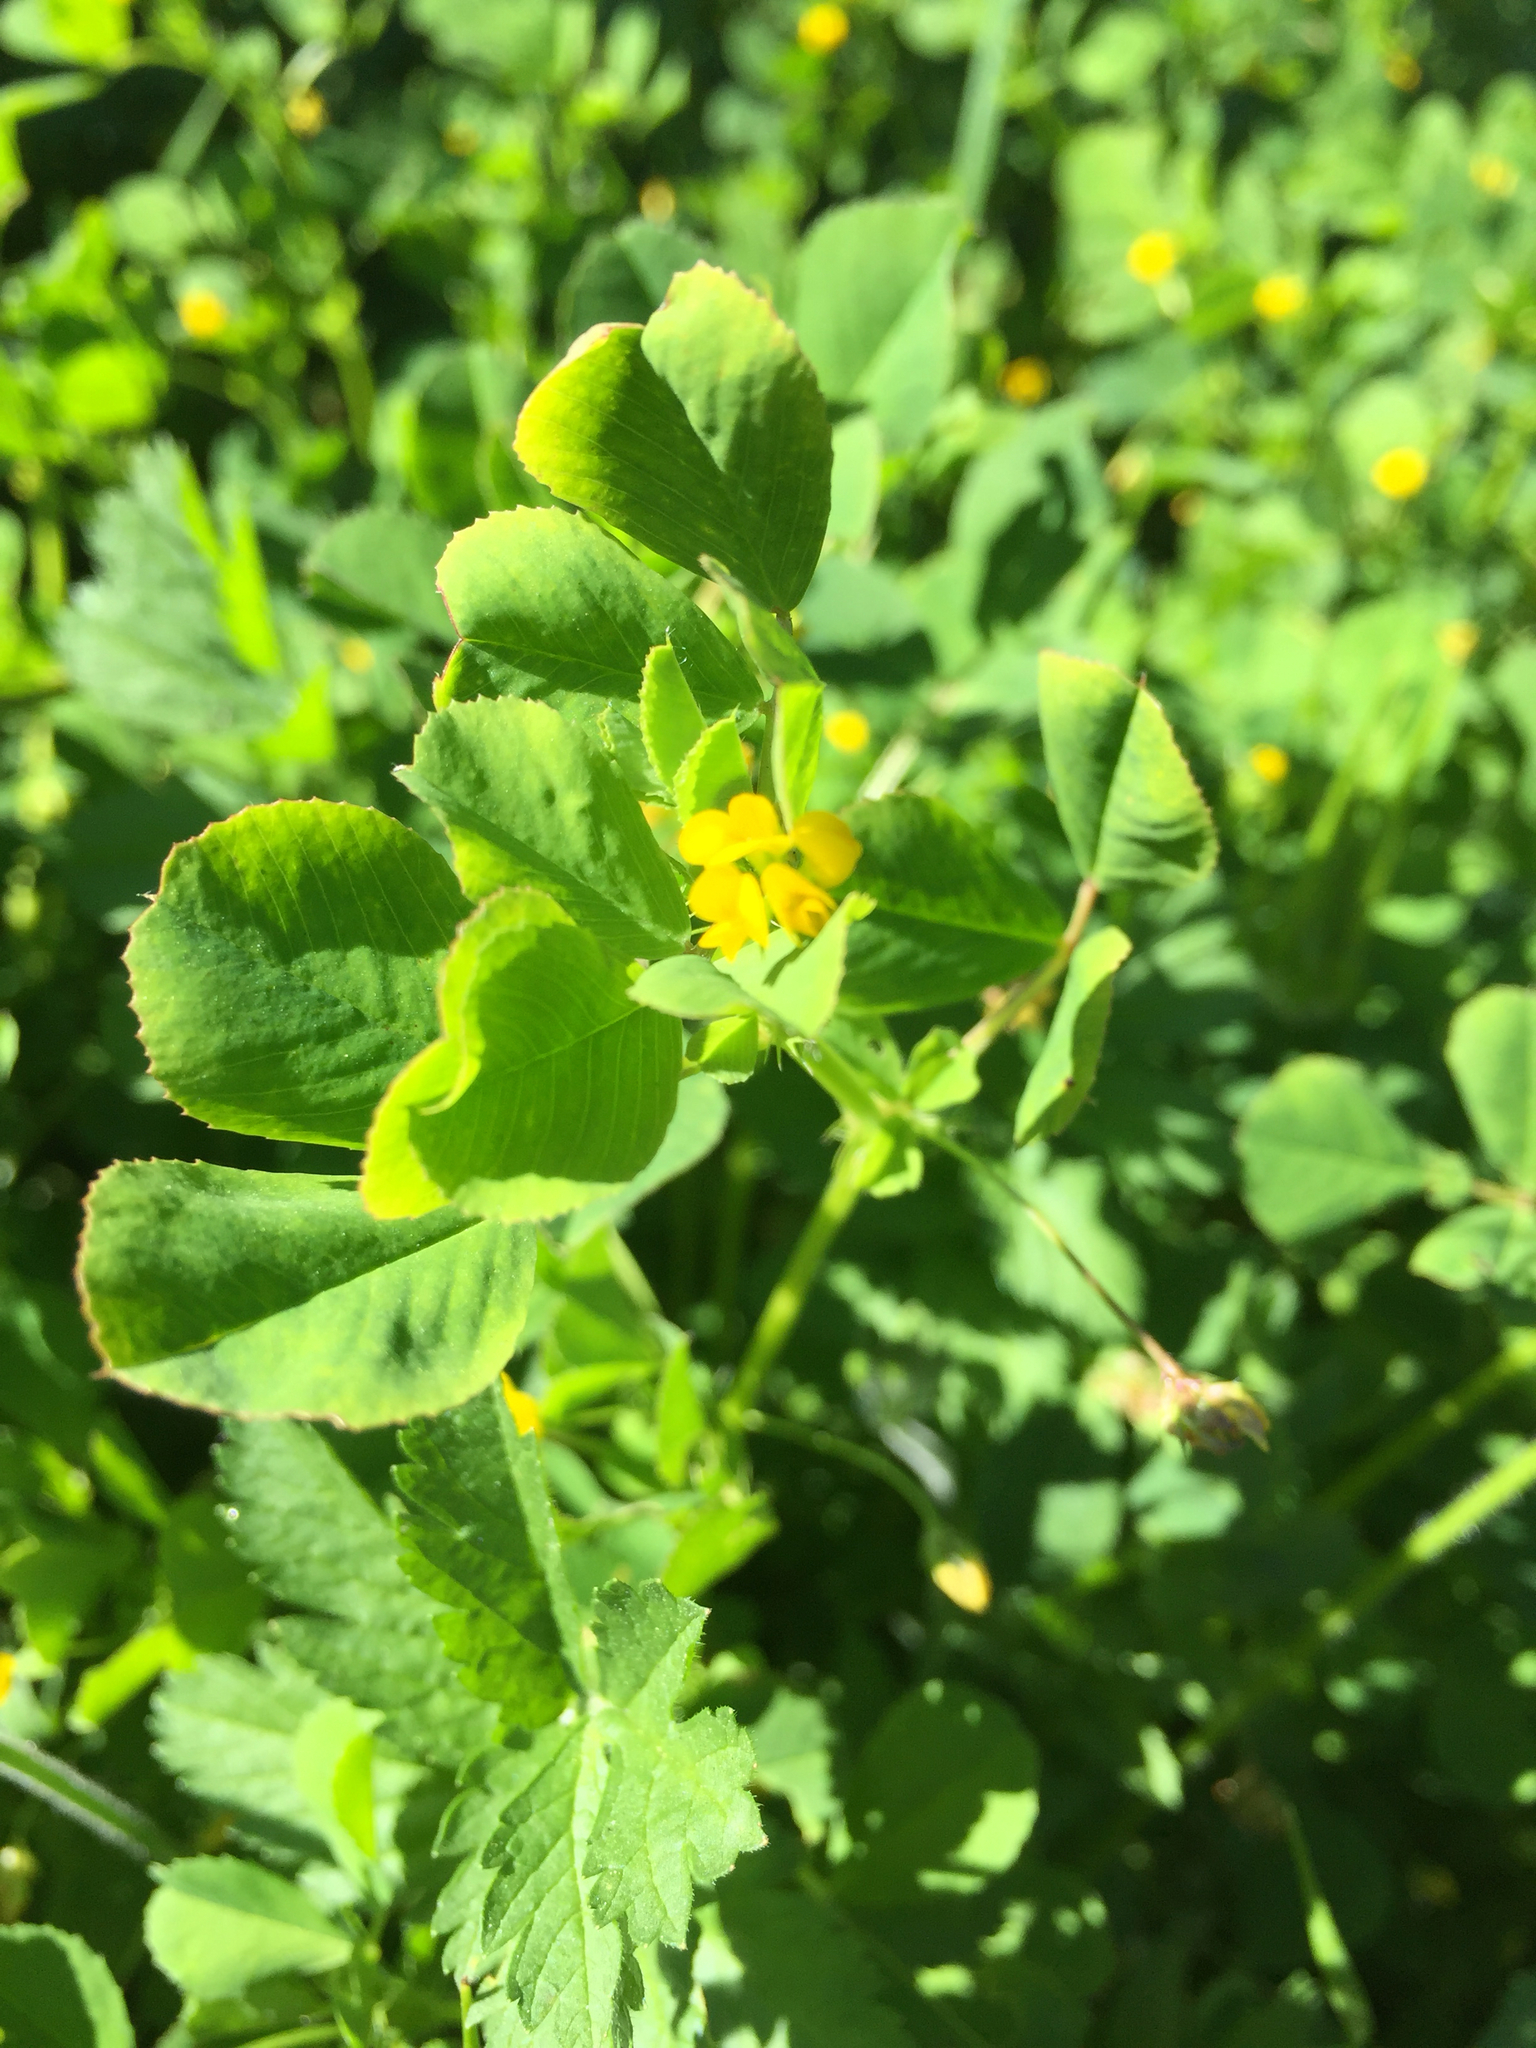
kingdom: Plantae
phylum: Tracheophyta
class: Magnoliopsida
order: Geraniales
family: Geraniaceae
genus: Erodium
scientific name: Erodium moschatum
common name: Musk stork's-bill
